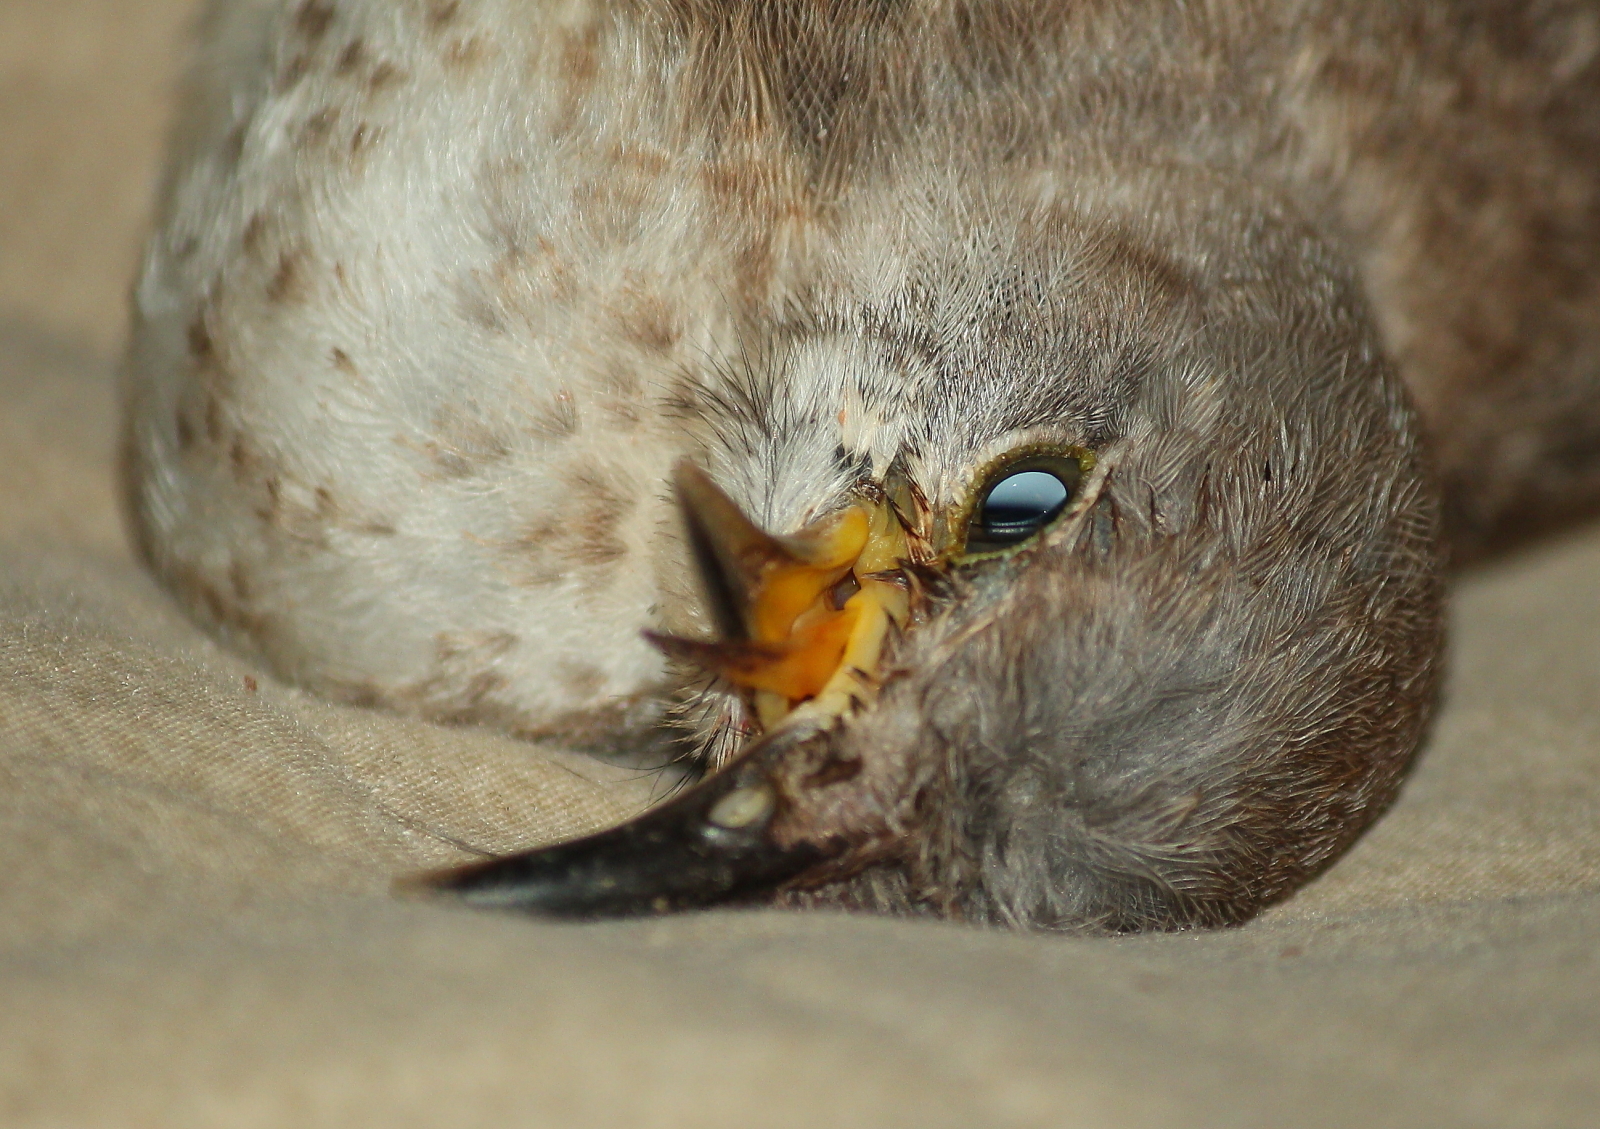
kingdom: Animalia
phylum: Chordata
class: Aves
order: Passeriformes
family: Mimidae
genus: Mimus
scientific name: Mimus polyglottos
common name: Northern mockingbird
